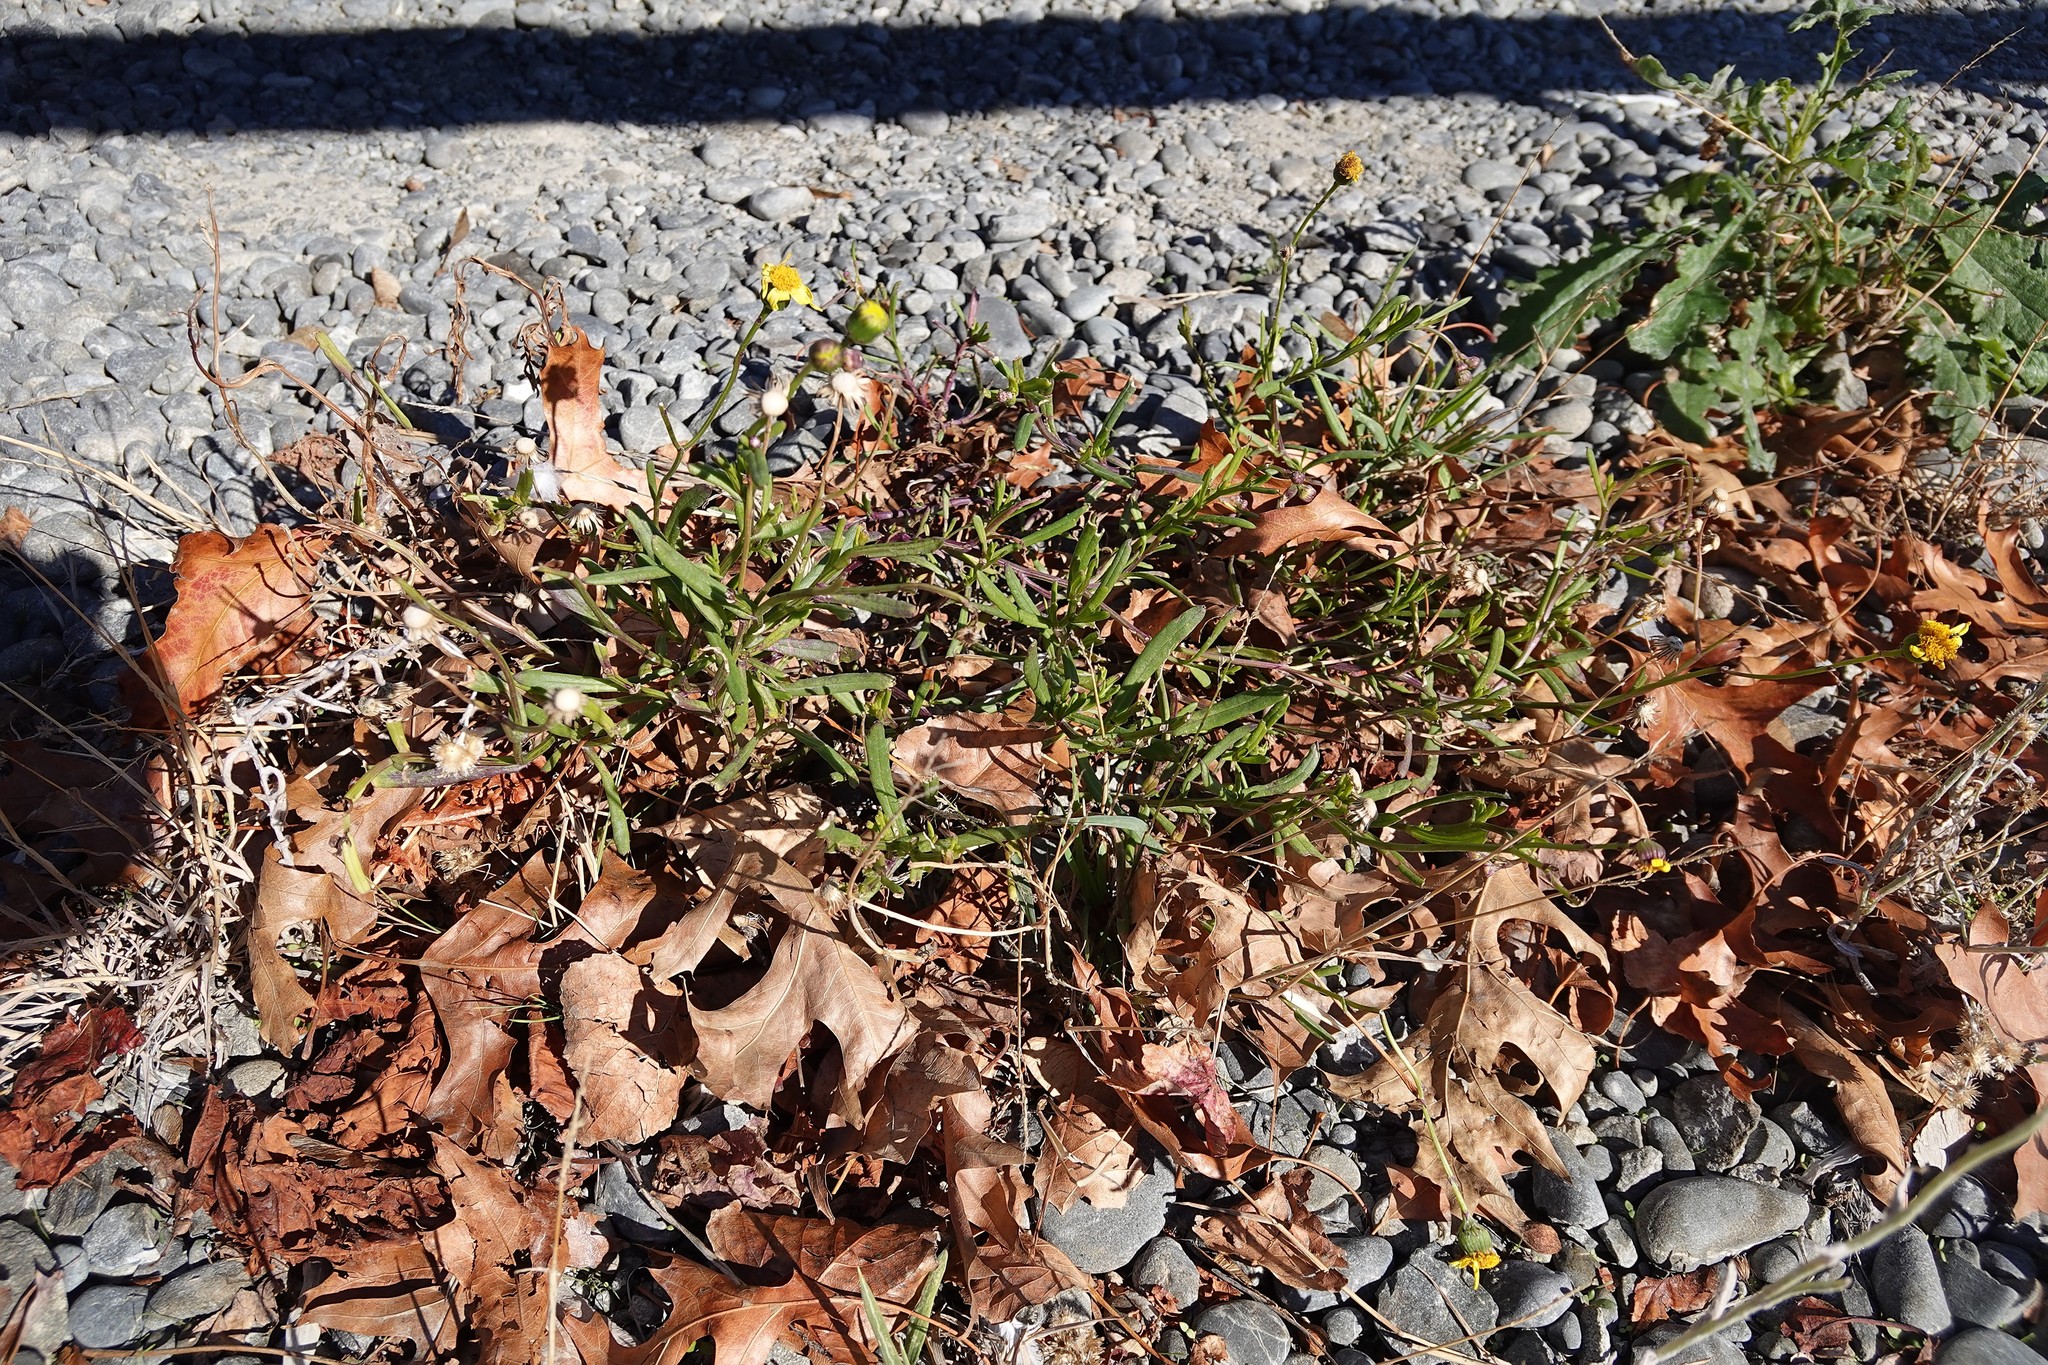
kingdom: Plantae
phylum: Tracheophyta
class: Magnoliopsida
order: Asterales
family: Asteraceae
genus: Senecio
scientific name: Senecio skirrhodon
